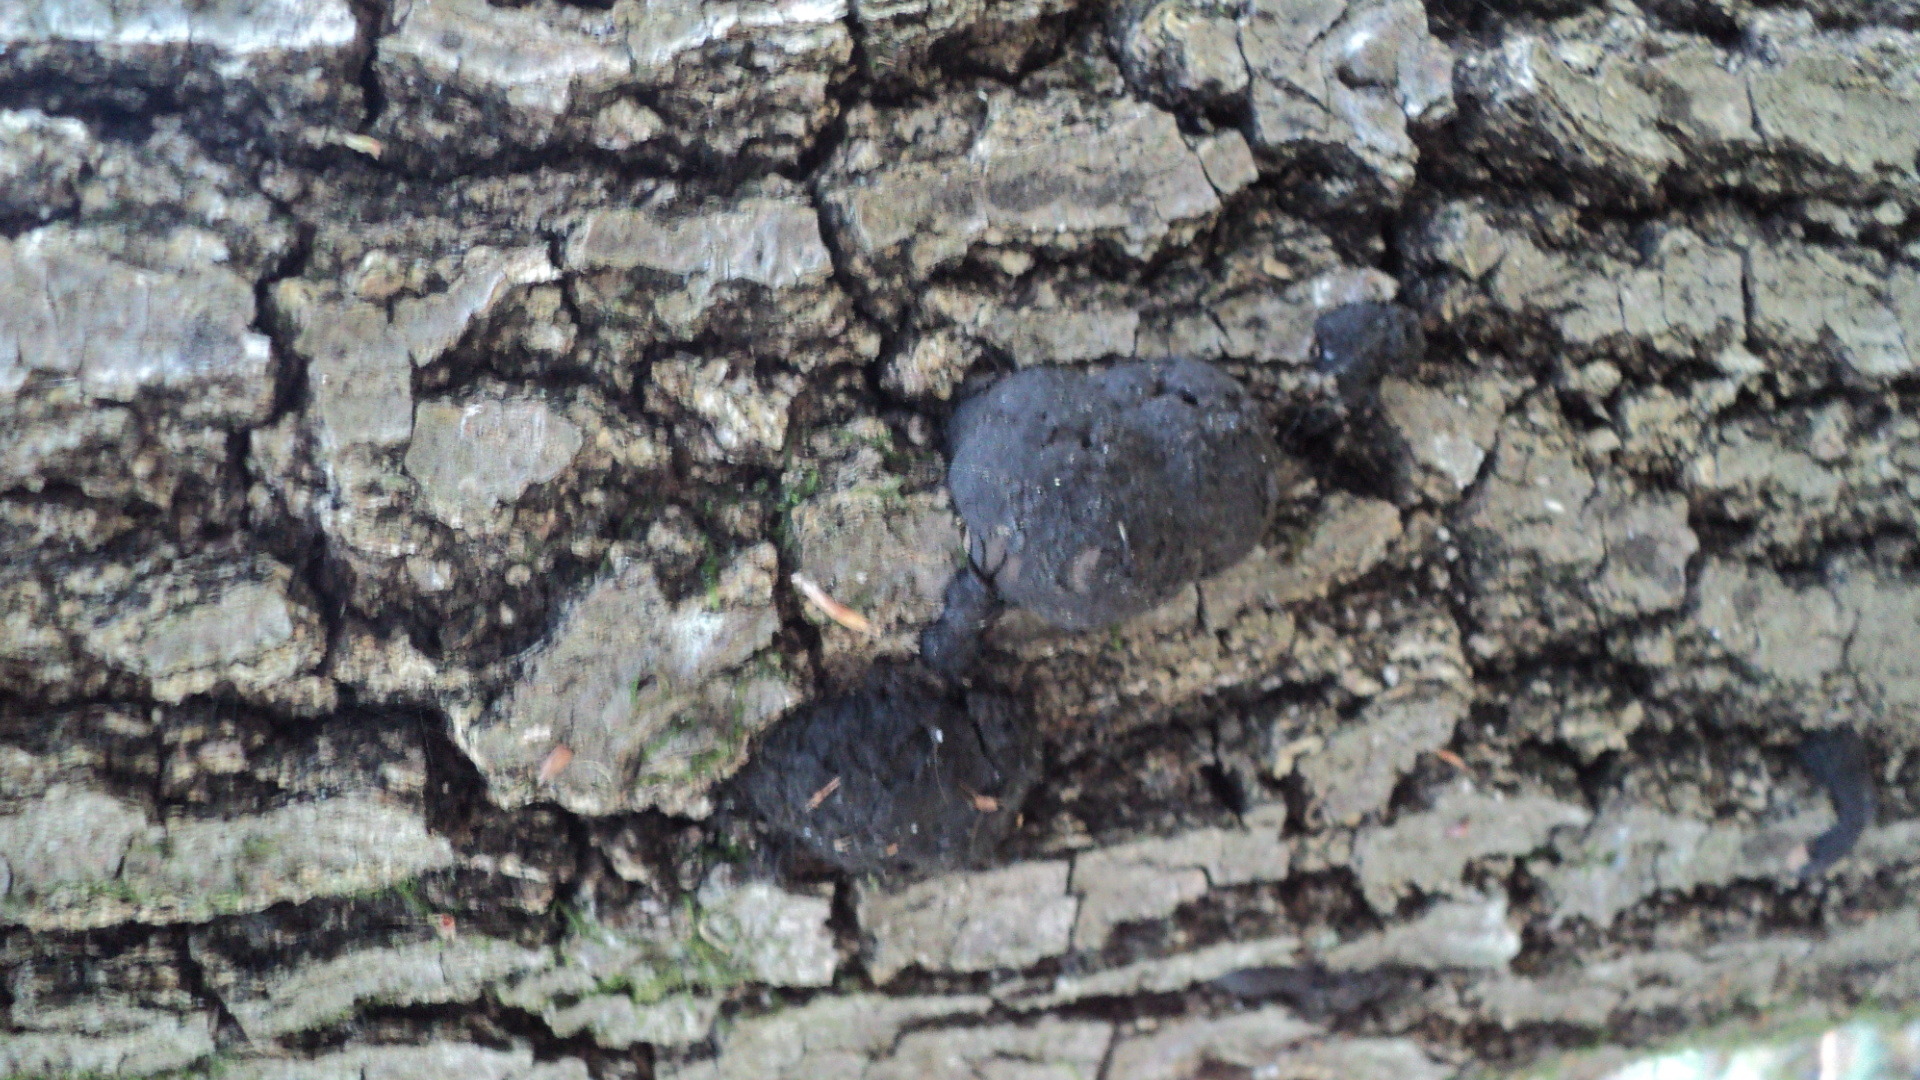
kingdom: Fungi
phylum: Ascomycota
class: Sordariomycetes
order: Xylariales
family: Hypoxylaceae
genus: Annulohypoxylon
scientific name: Annulohypoxylon thouarsianum
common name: Cramp balls
